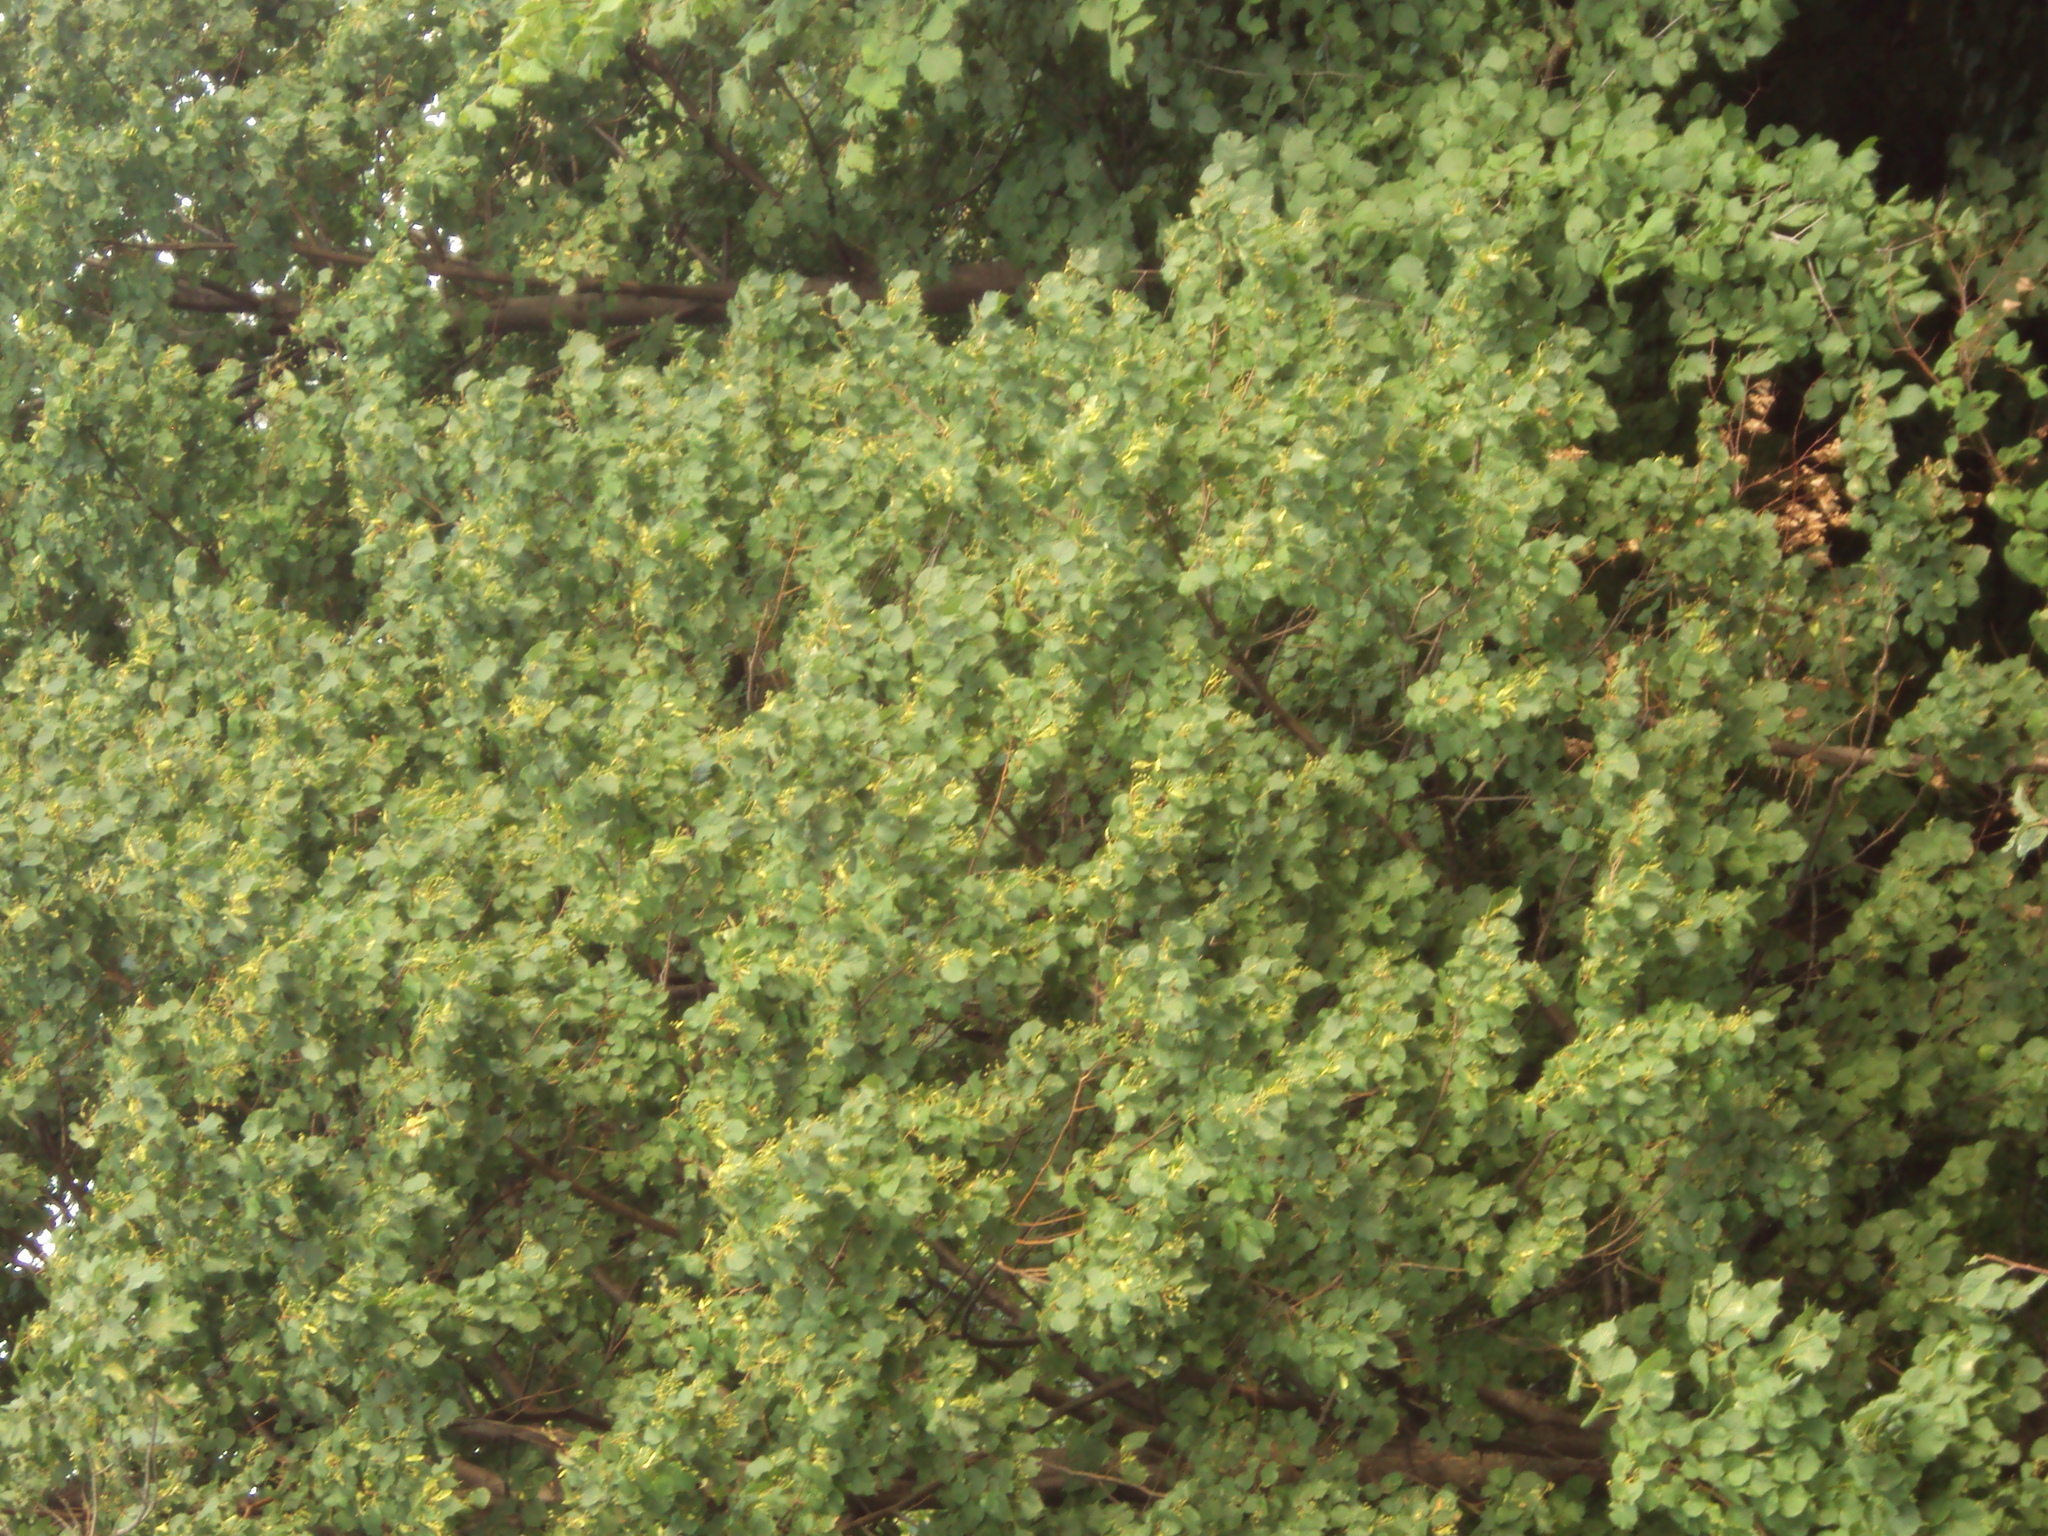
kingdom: Plantae
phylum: Tracheophyta
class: Magnoliopsida
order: Malvales
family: Malvaceae
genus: Tilia
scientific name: Tilia cordata
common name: Small-leaved lime
